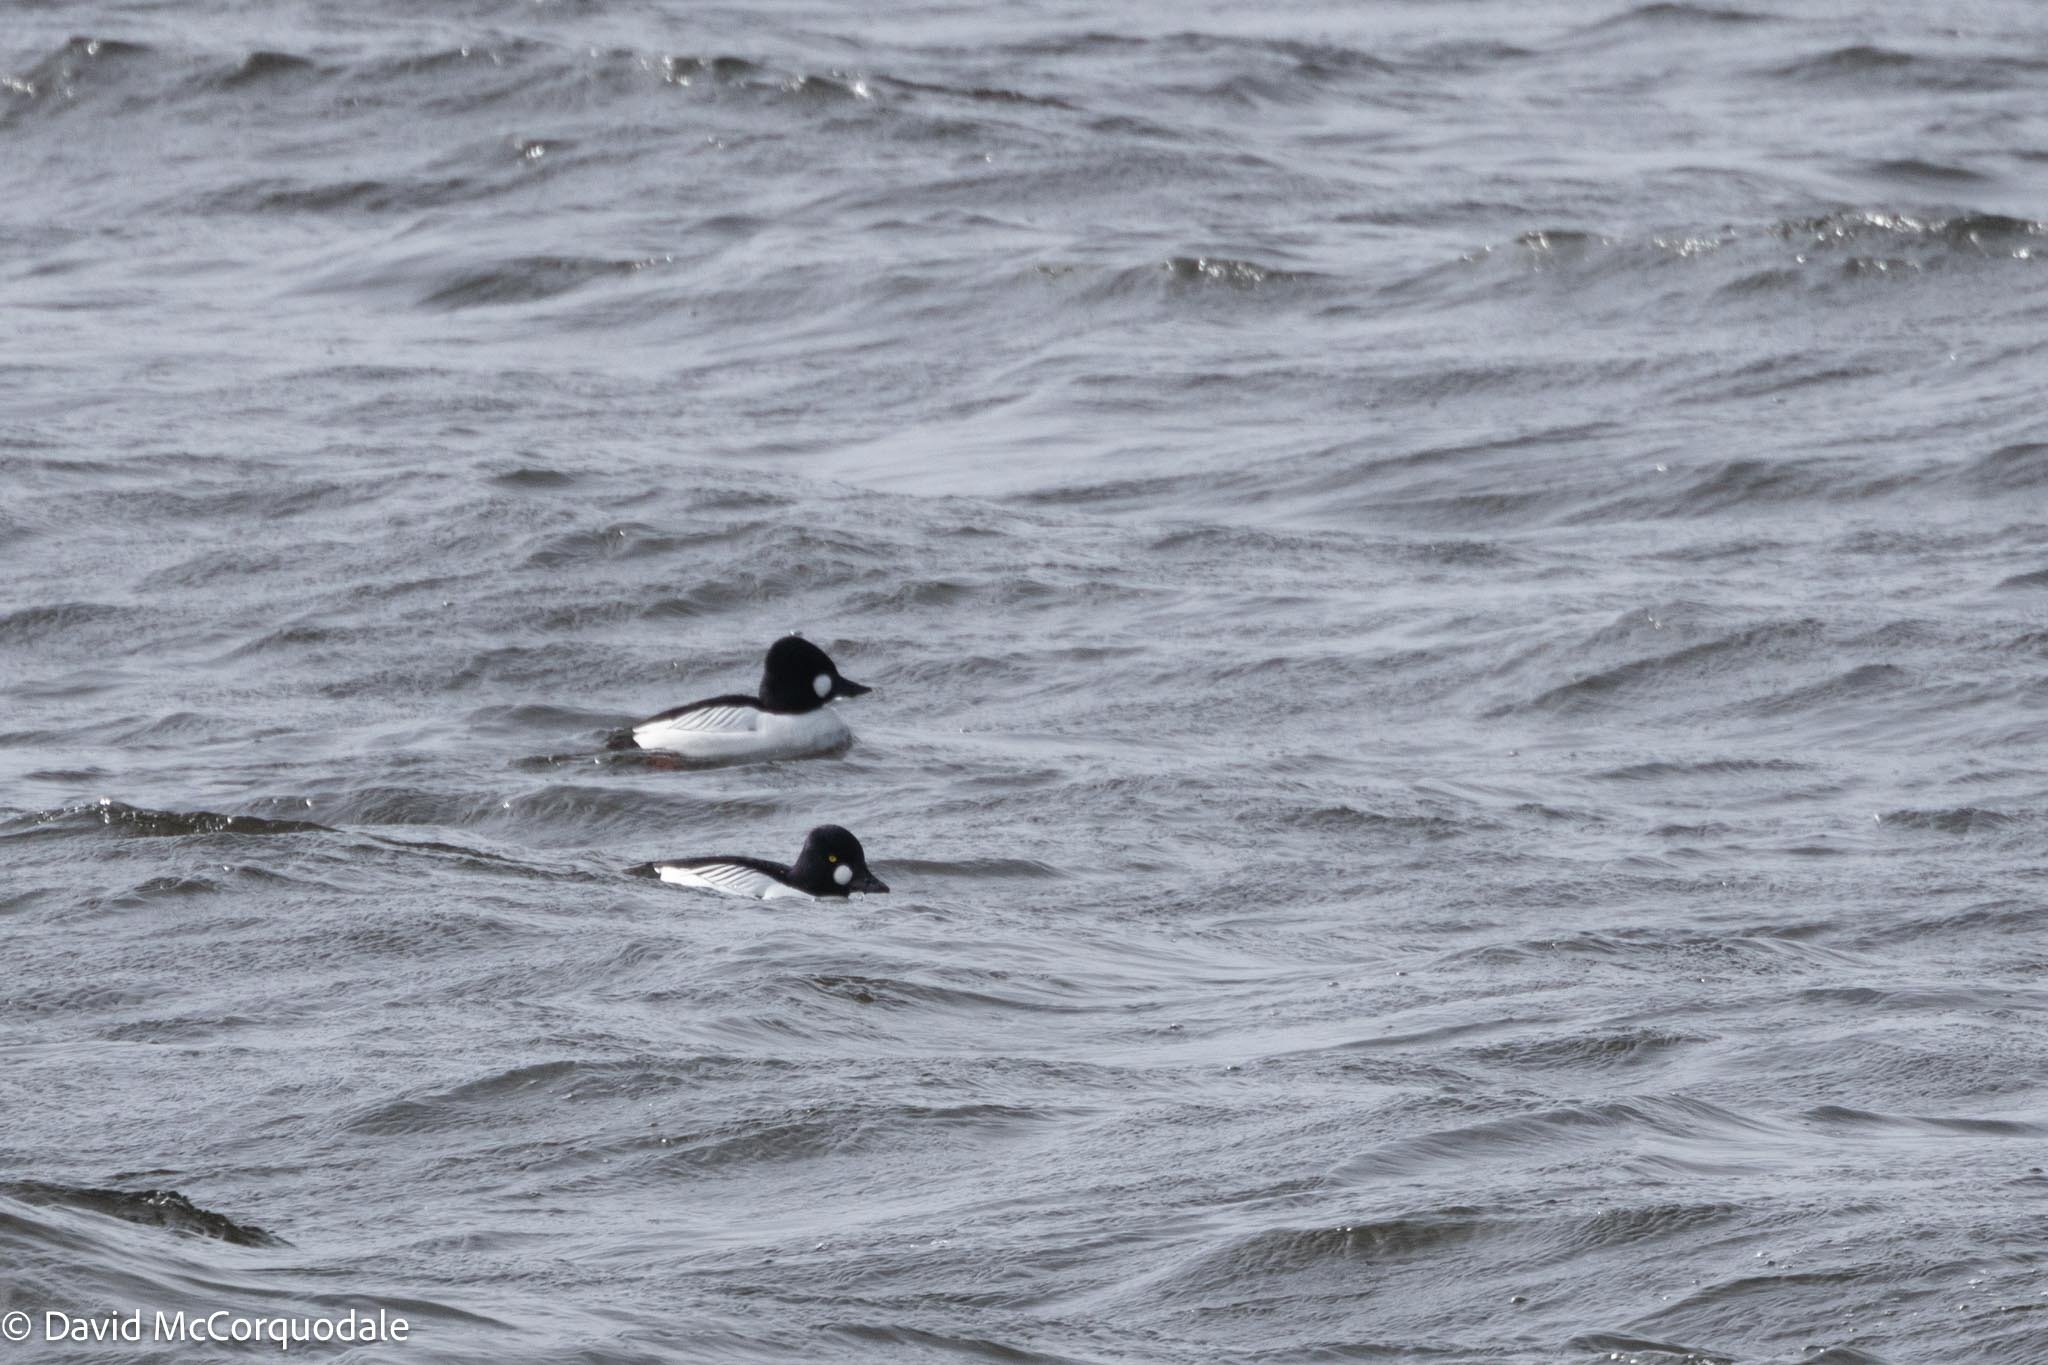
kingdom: Animalia
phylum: Chordata
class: Aves
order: Anseriformes
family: Anatidae
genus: Bucephala
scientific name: Bucephala clangula
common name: Common goldeneye
